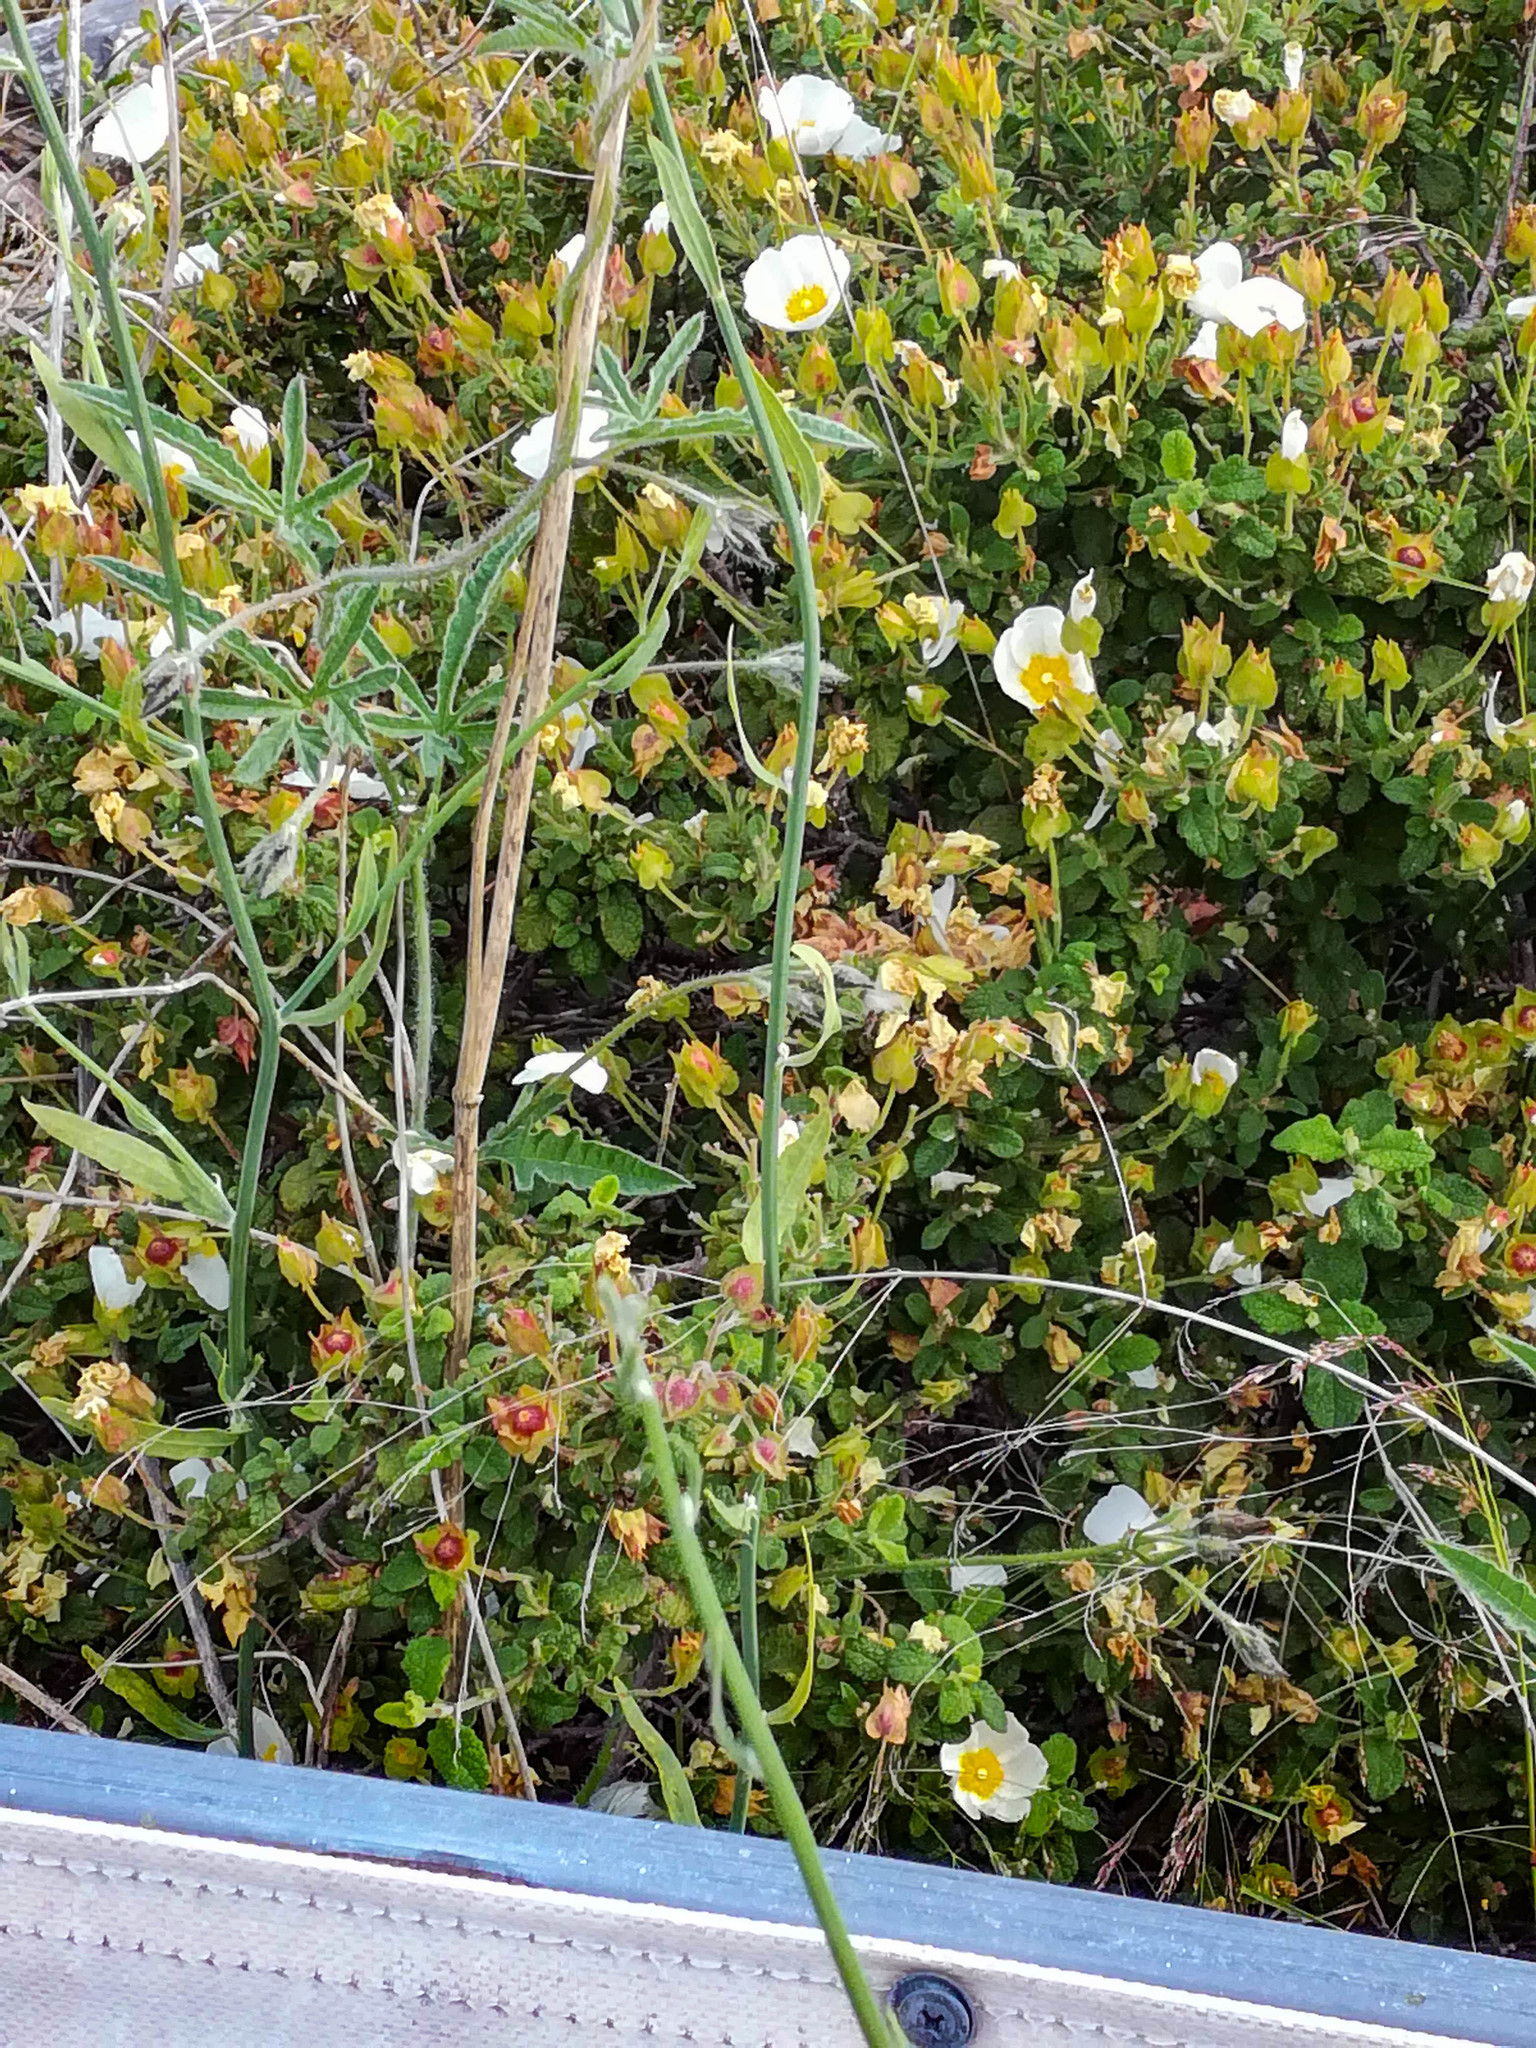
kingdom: Plantae
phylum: Tracheophyta
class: Magnoliopsida
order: Malvales
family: Cistaceae
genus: Cistus
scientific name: Cistus salviifolius
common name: Salvia cistus
